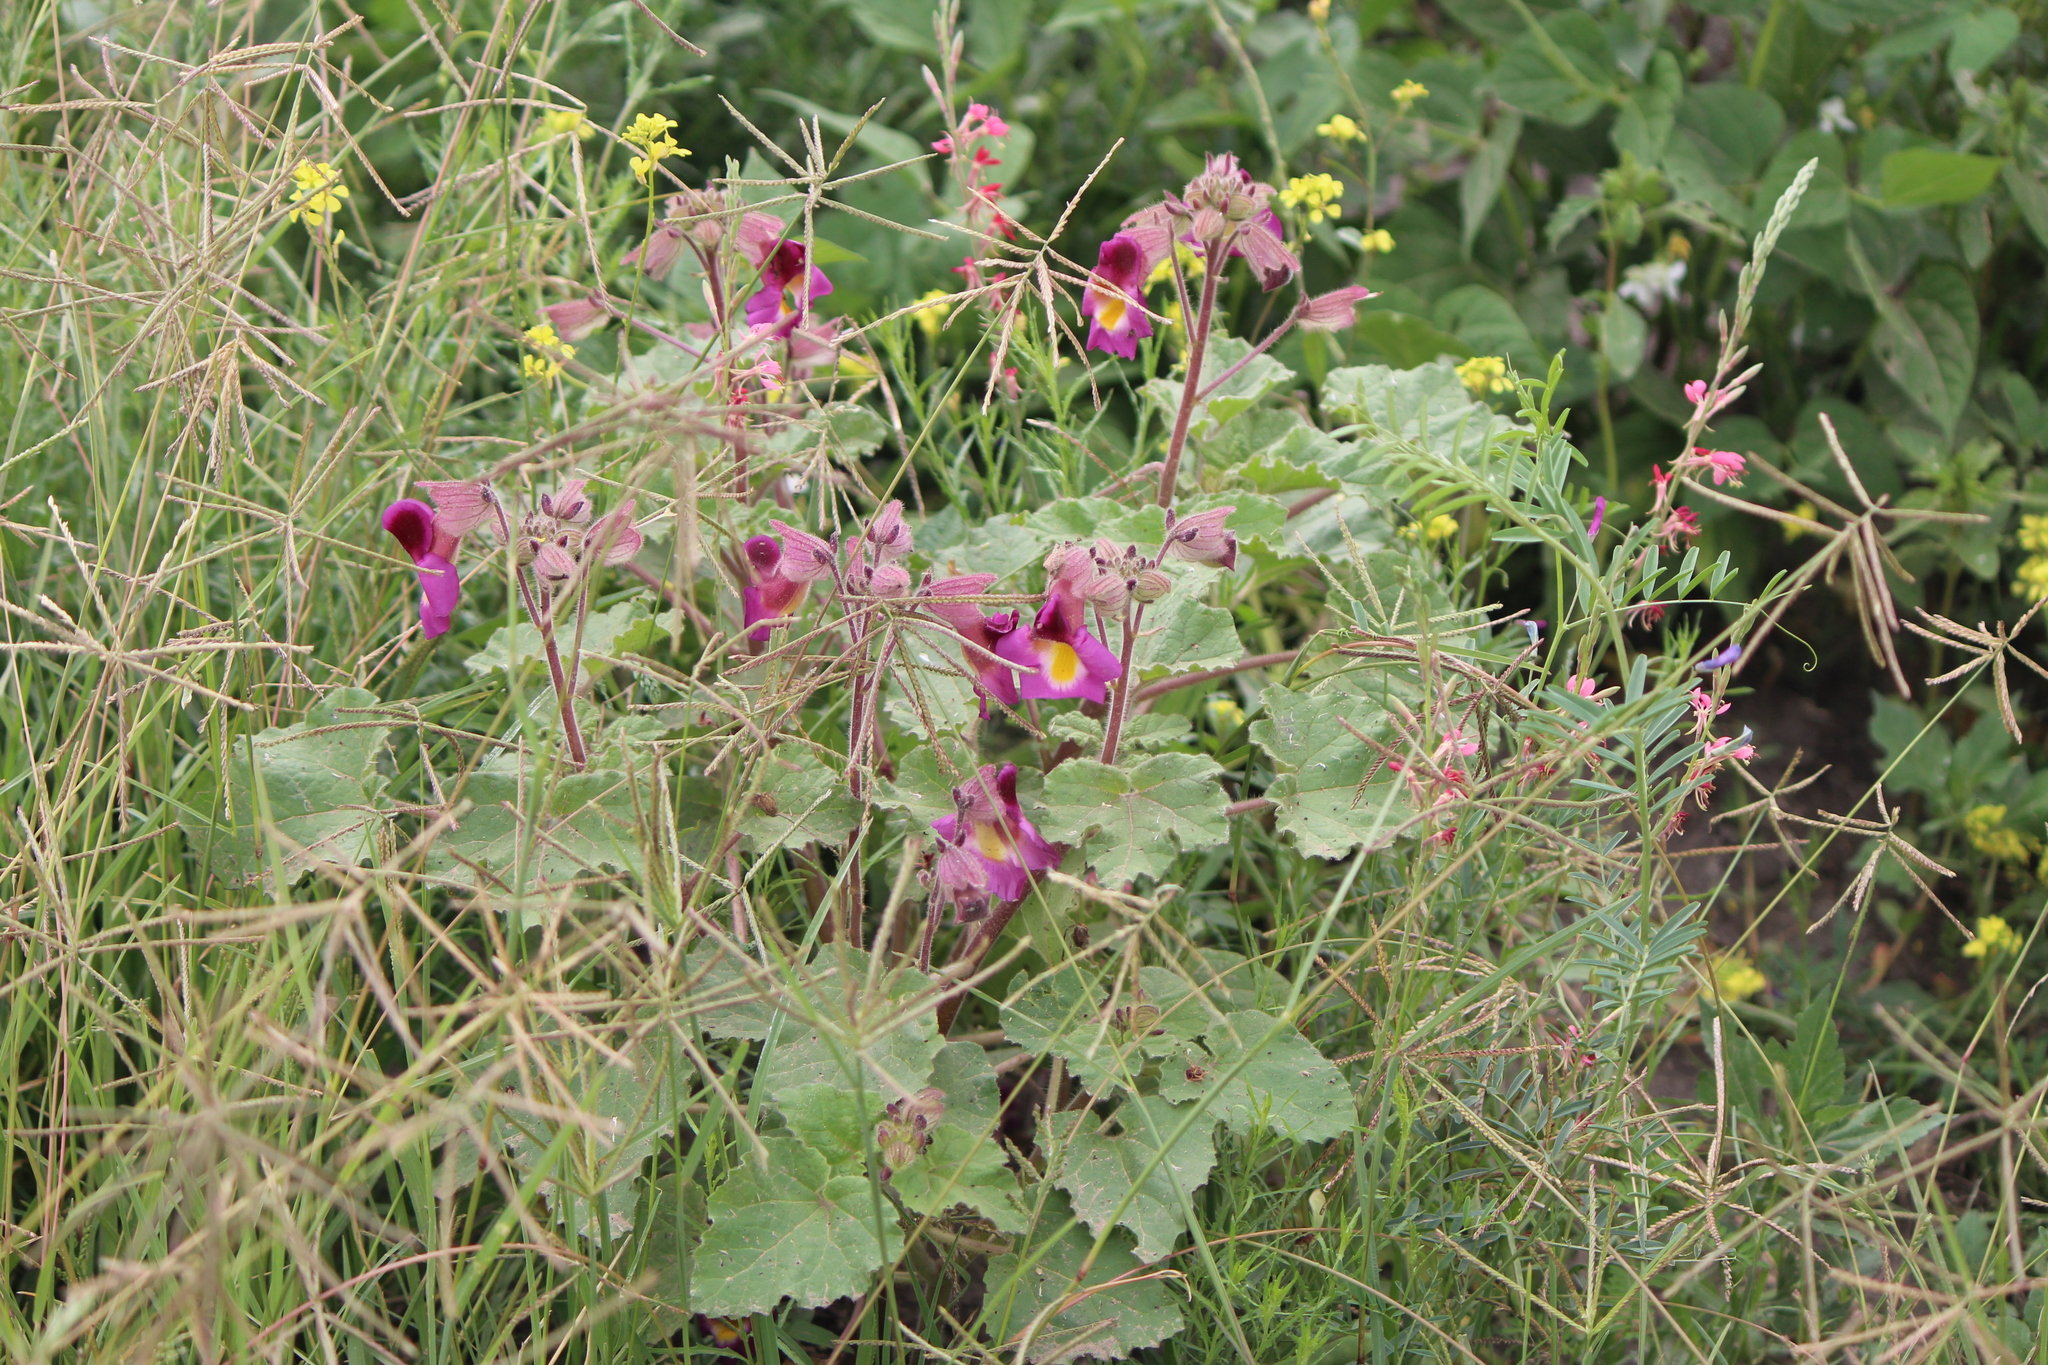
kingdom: Plantae
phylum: Tracheophyta
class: Magnoliopsida
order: Lamiales
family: Martyniaceae
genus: Proboscidea
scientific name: Proboscidea louisianica
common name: Elephant tusks
